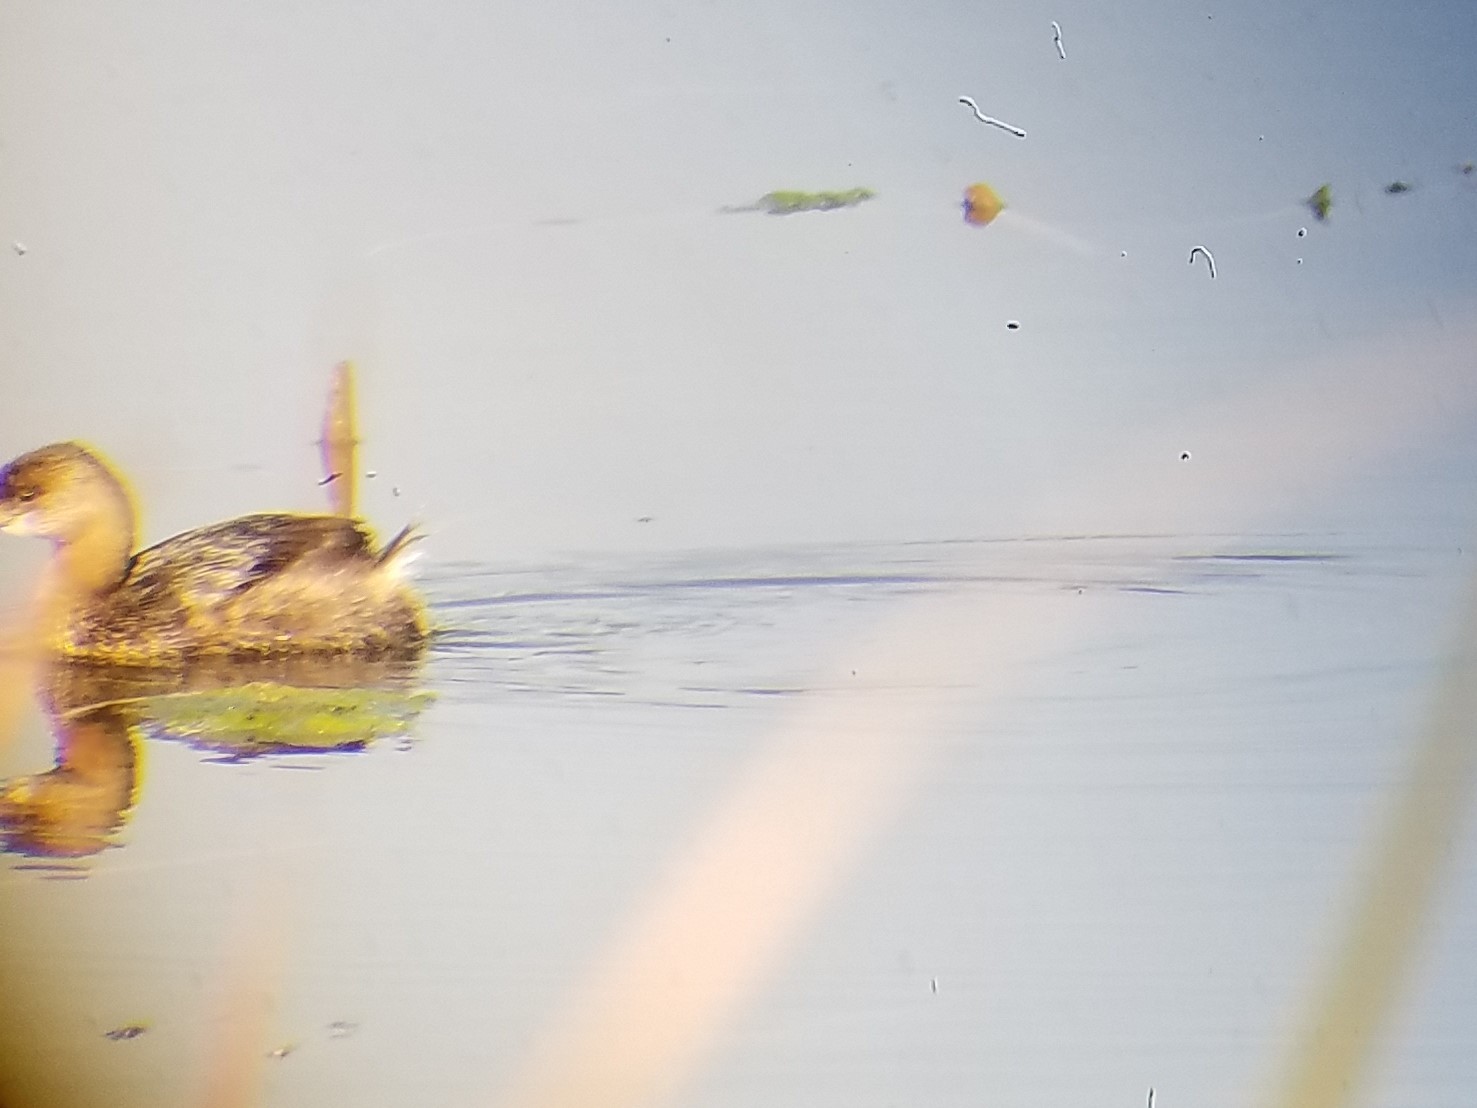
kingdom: Animalia
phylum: Chordata
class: Aves
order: Podicipediformes
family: Podicipedidae
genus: Podilymbus
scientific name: Podilymbus podiceps
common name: Pied-billed grebe
